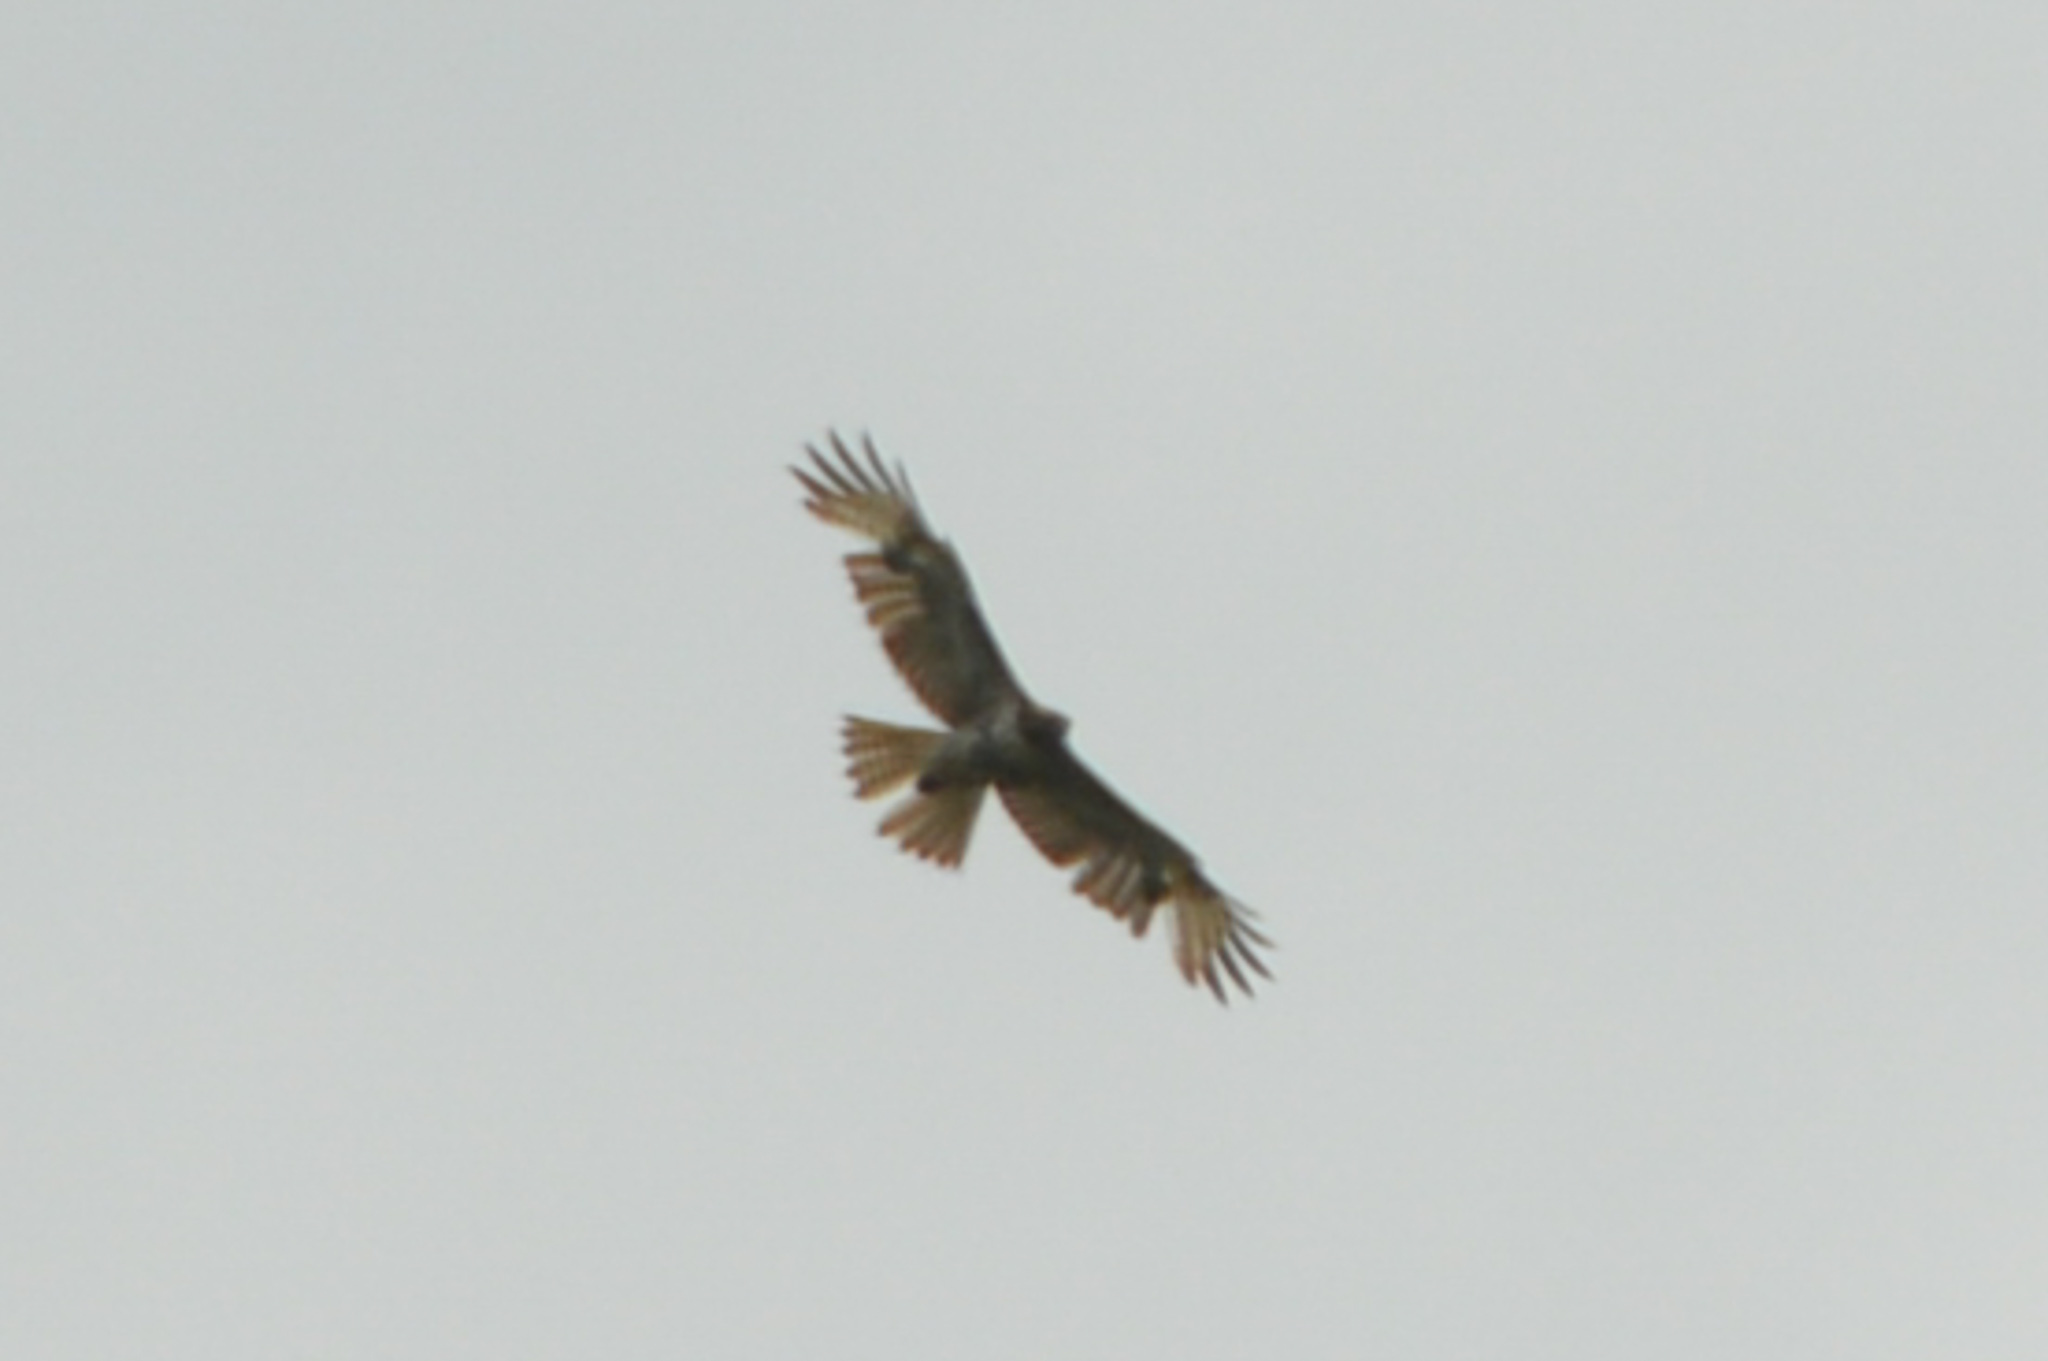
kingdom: Animalia
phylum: Chordata
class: Aves
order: Accipitriformes
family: Accipitridae
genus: Buteo
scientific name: Buteo jamaicensis
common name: Red-tailed hawk
